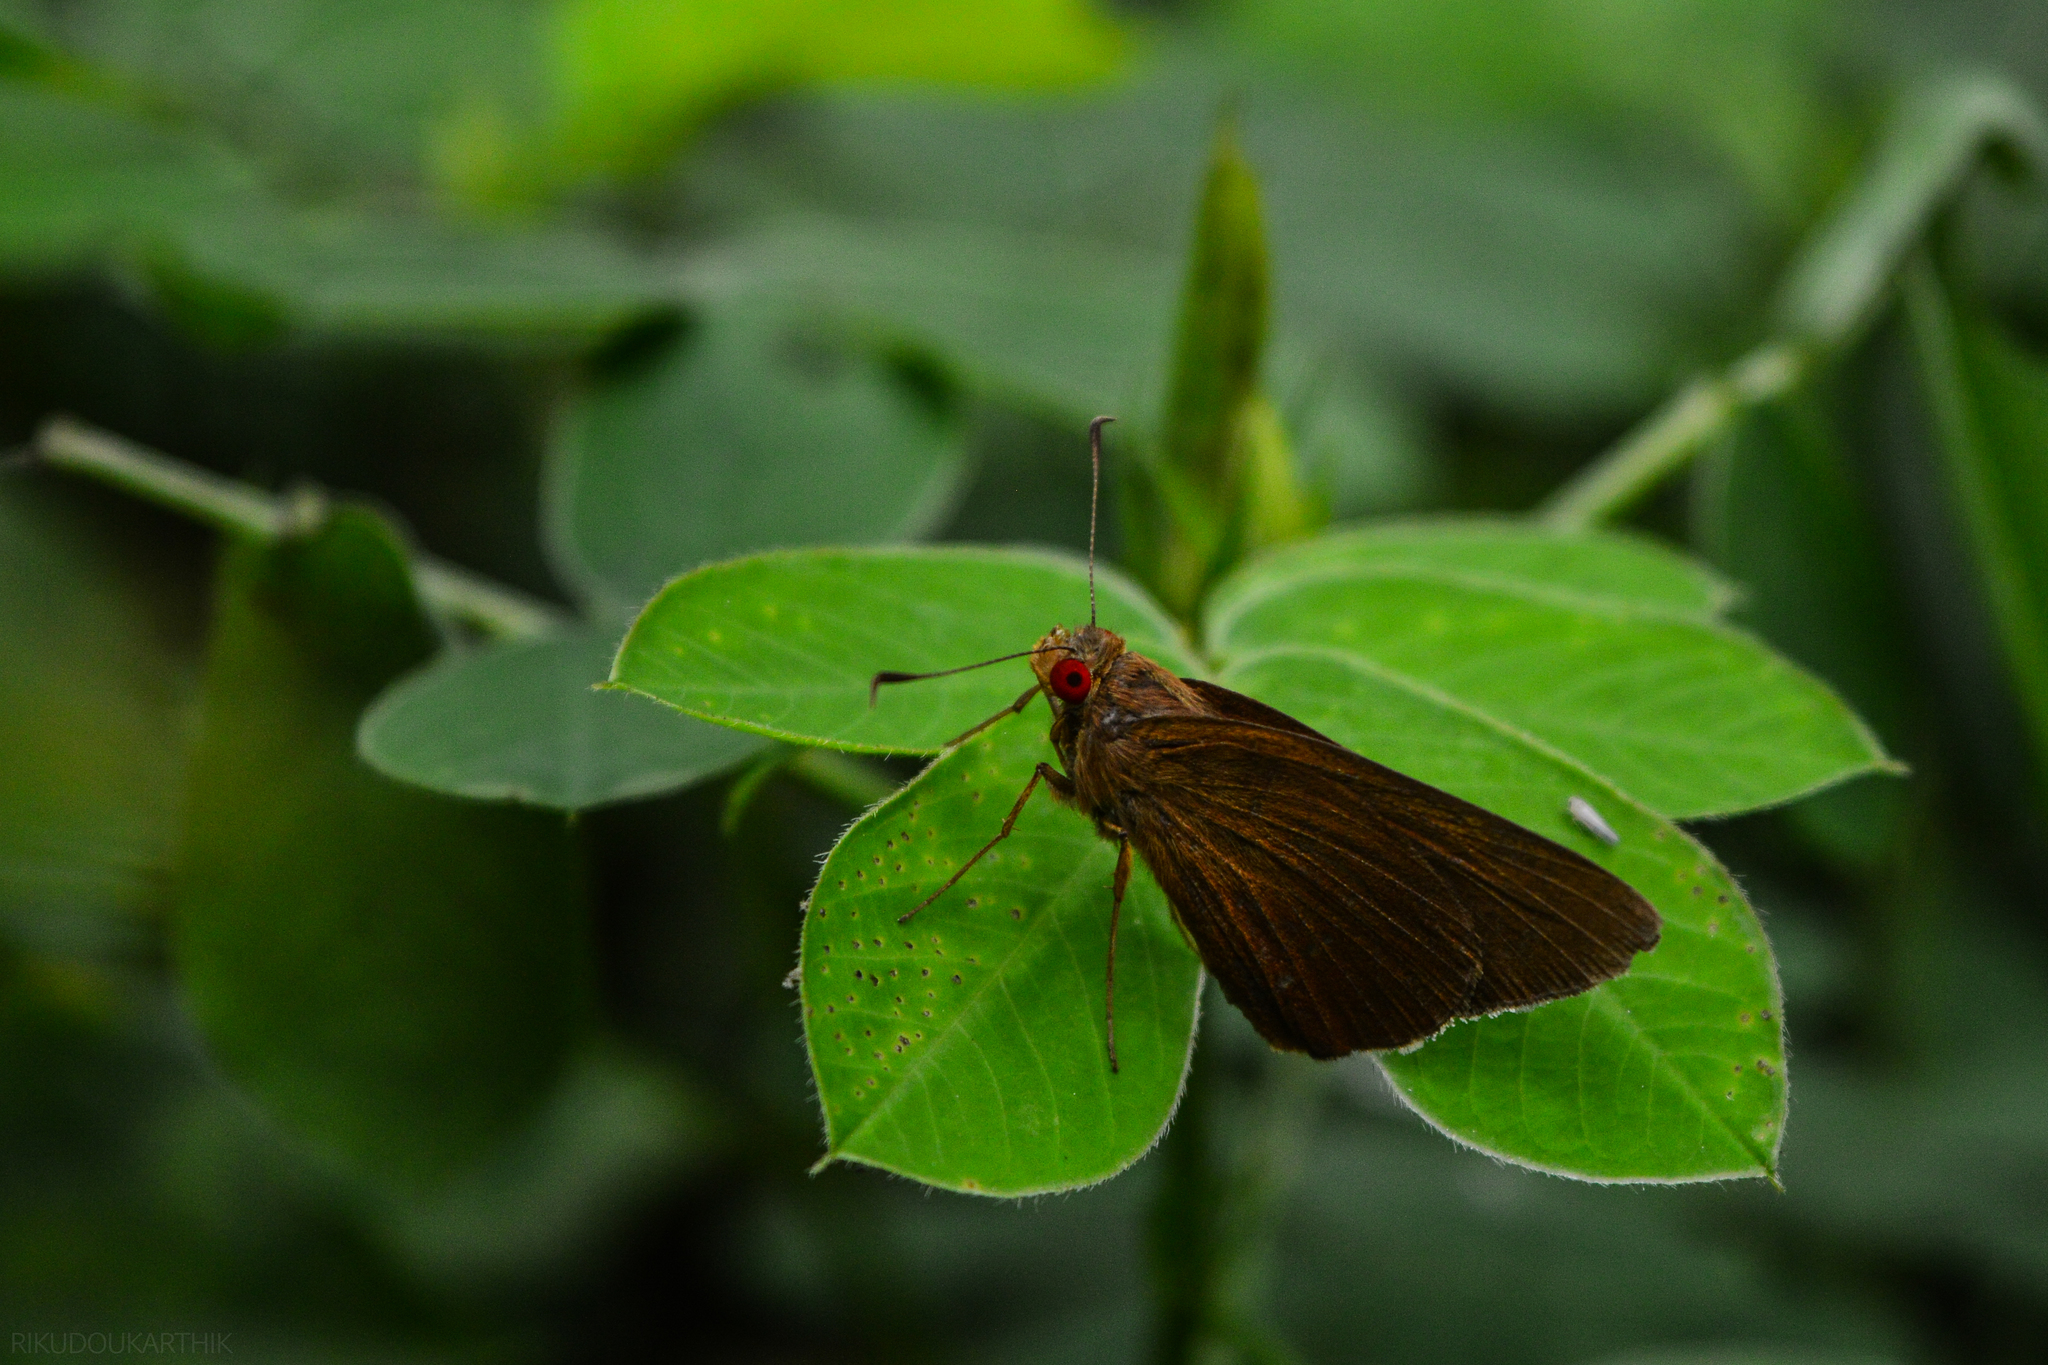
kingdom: Animalia
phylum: Arthropoda
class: Insecta
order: Lepidoptera
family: Hesperiidae
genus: Matapa
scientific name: Matapa aria
